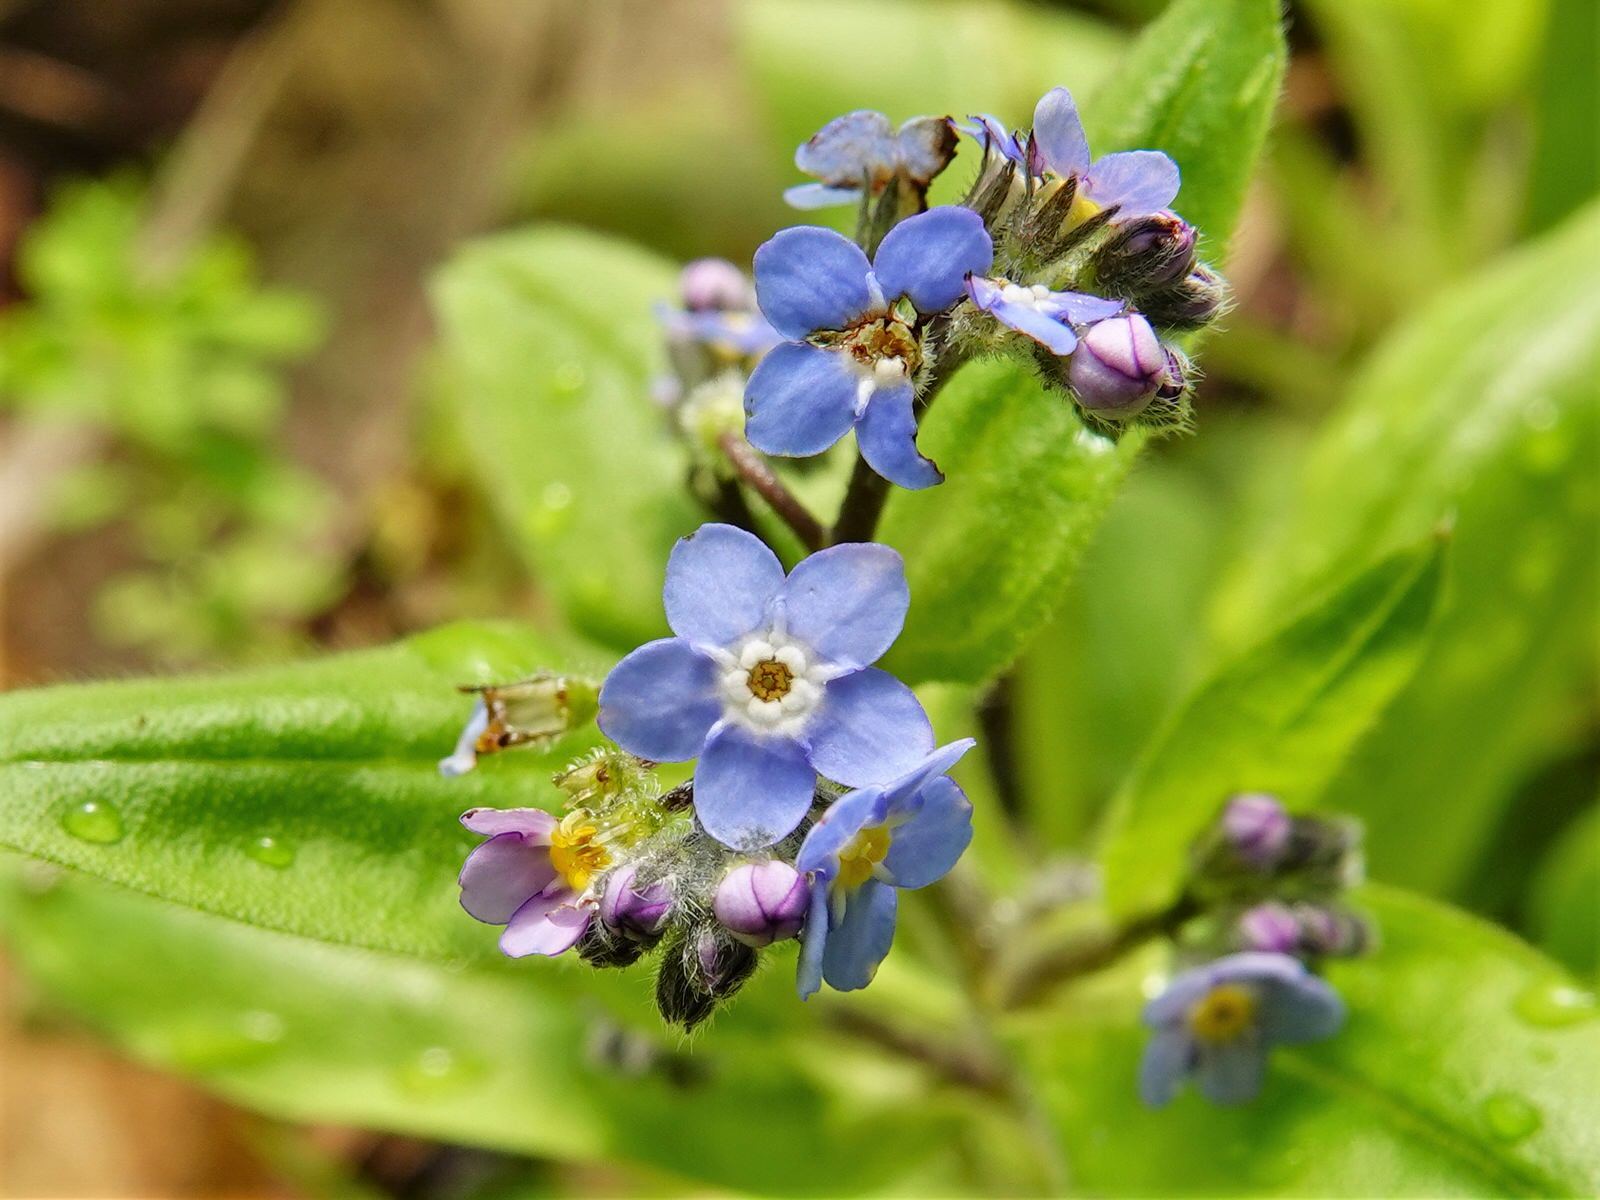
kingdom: Plantae
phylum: Tracheophyta
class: Magnoliopsida
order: Boraginales
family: Boraginaceae
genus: Myosotis
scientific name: Myosotis sylvatica
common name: Wood forget-me-not
